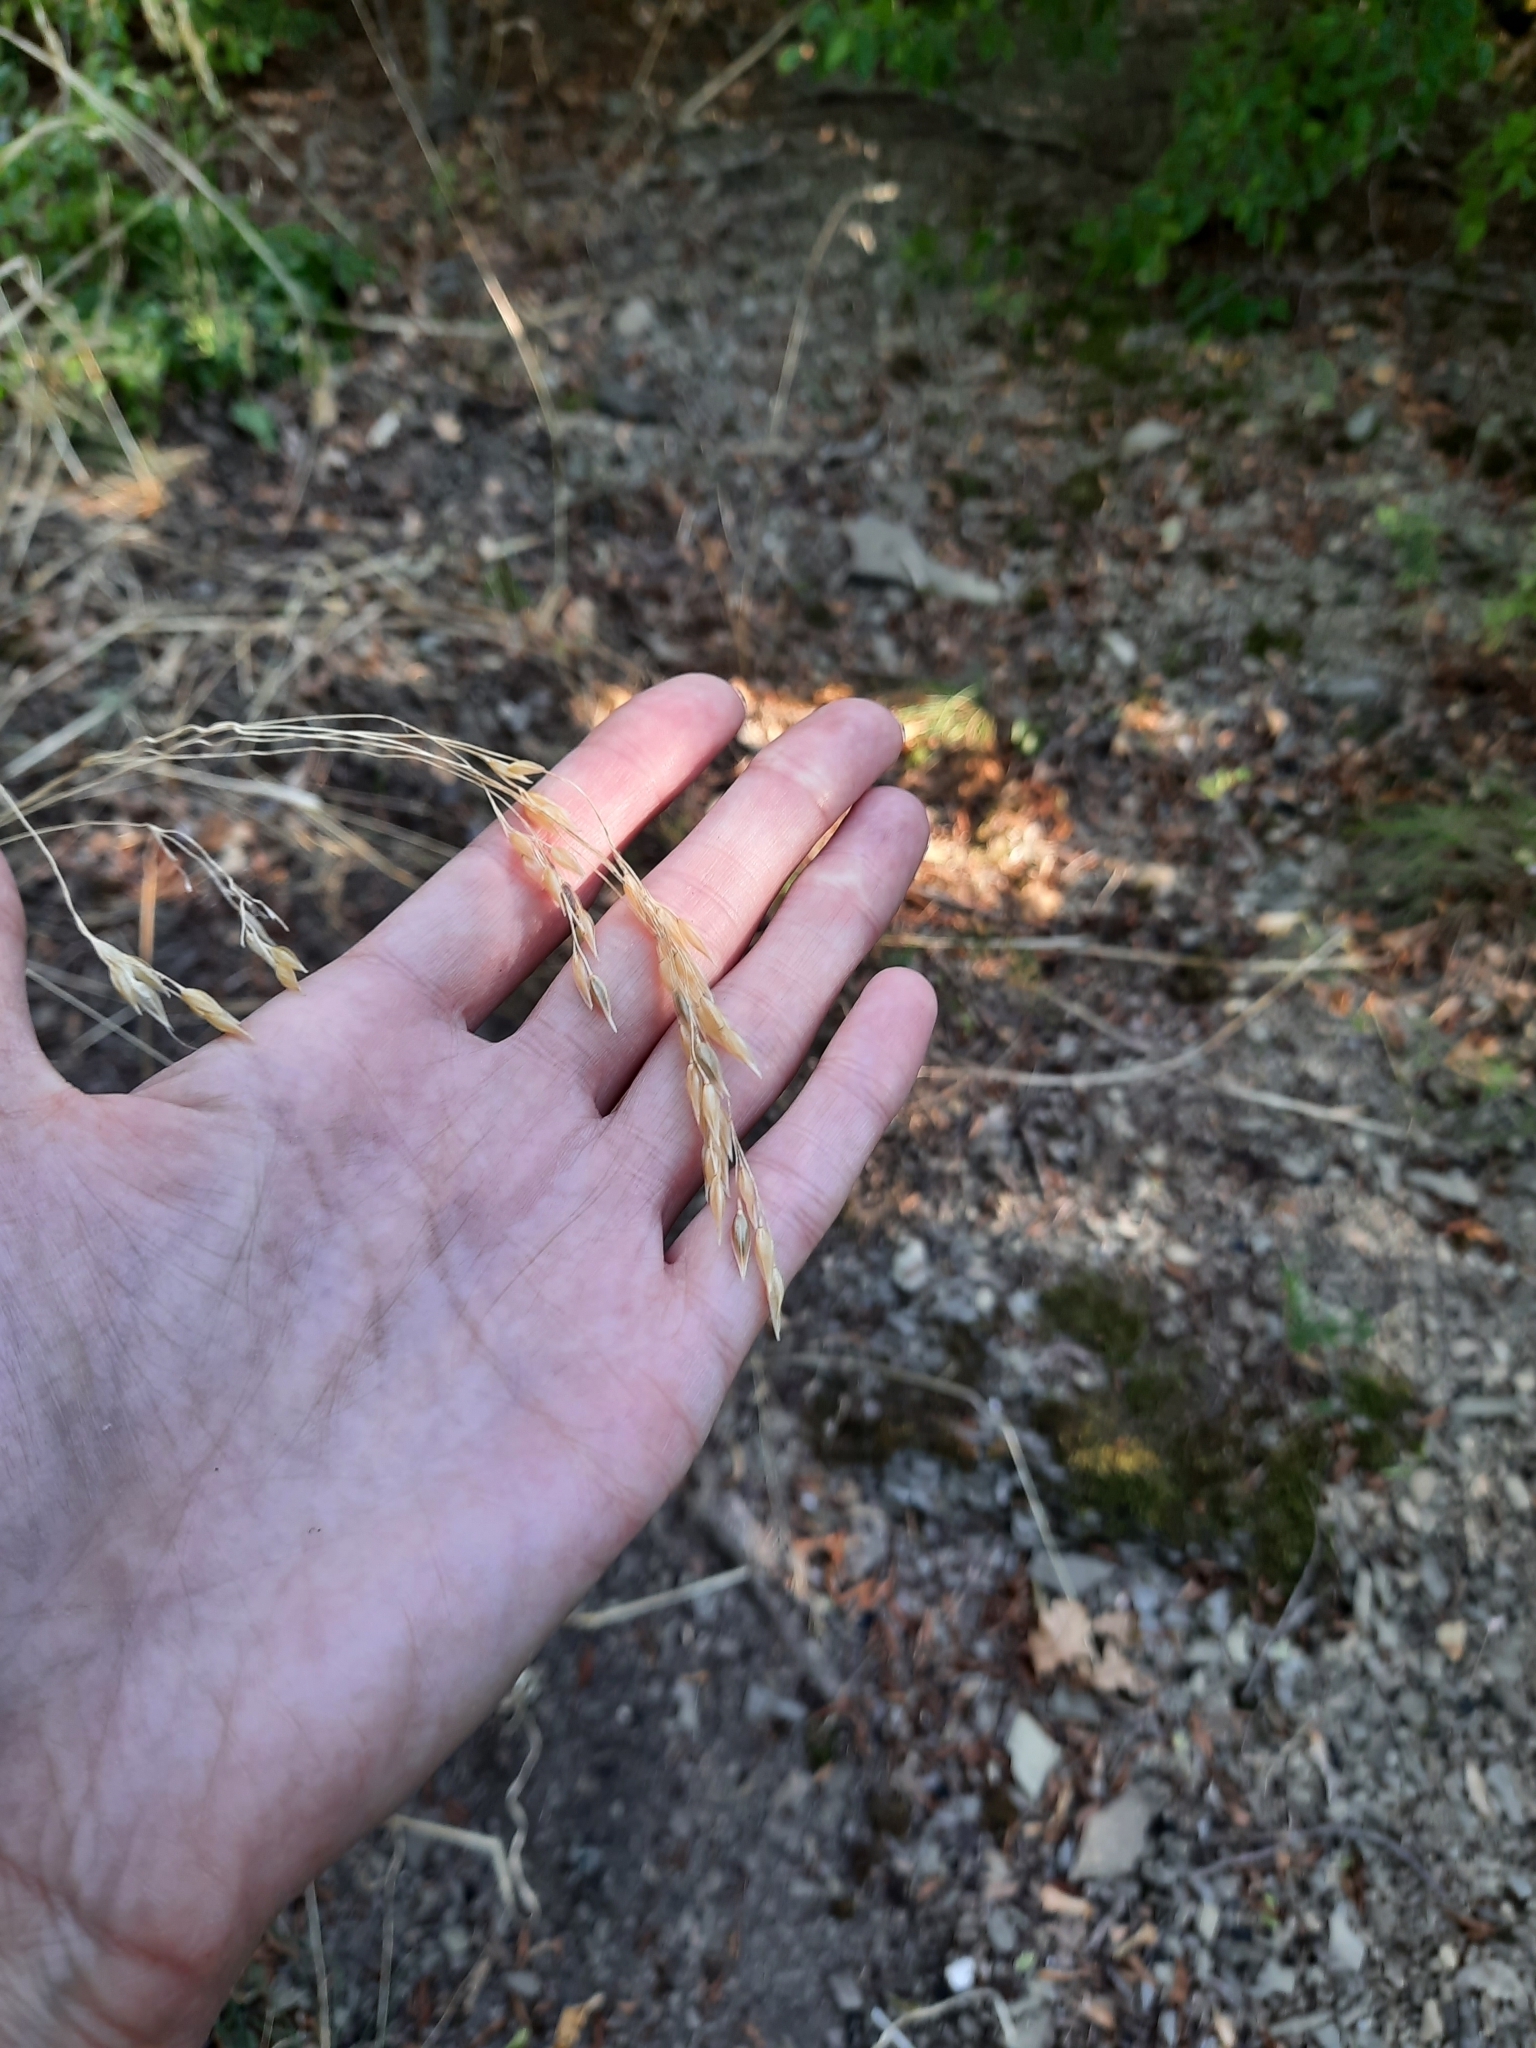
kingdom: Plantae
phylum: Tracheophyta
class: Liliopsida
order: Poales
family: Poaceae
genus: Piptatherum
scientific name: Piptatherum holciforme
